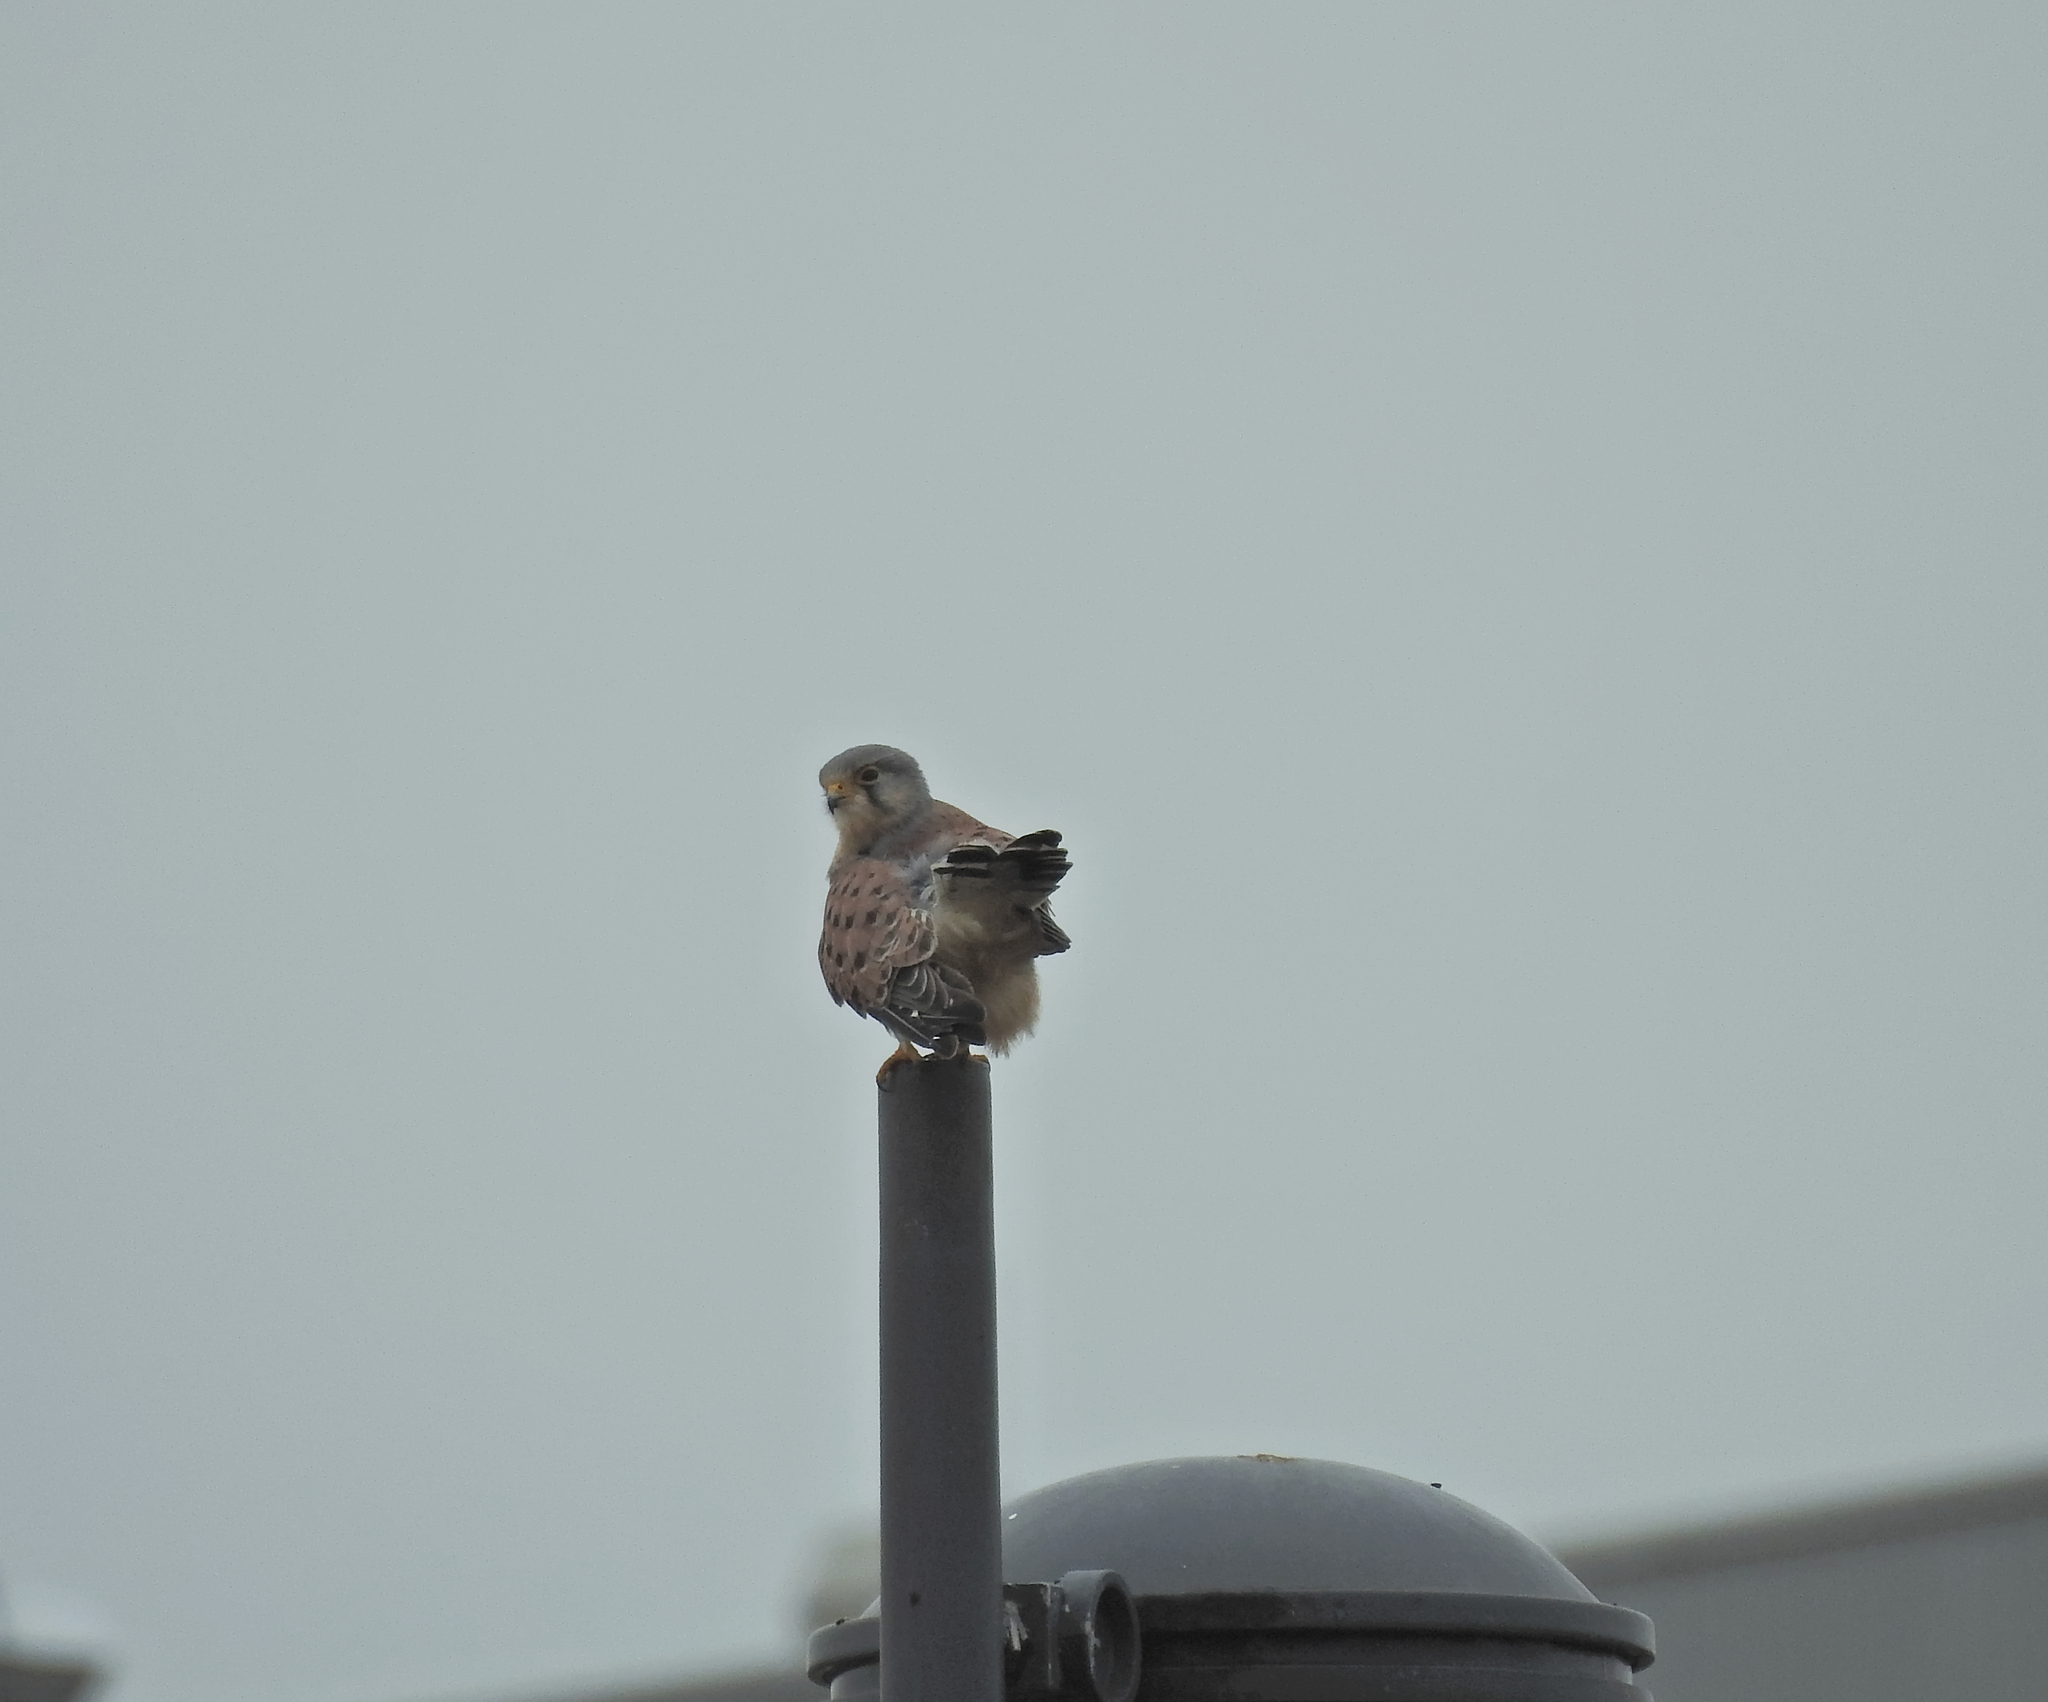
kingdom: Animalia
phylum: Chordata
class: Aves
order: Falconiformes
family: Falconidae
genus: Falco
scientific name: Falco tinnunculus
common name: Common kestrel
